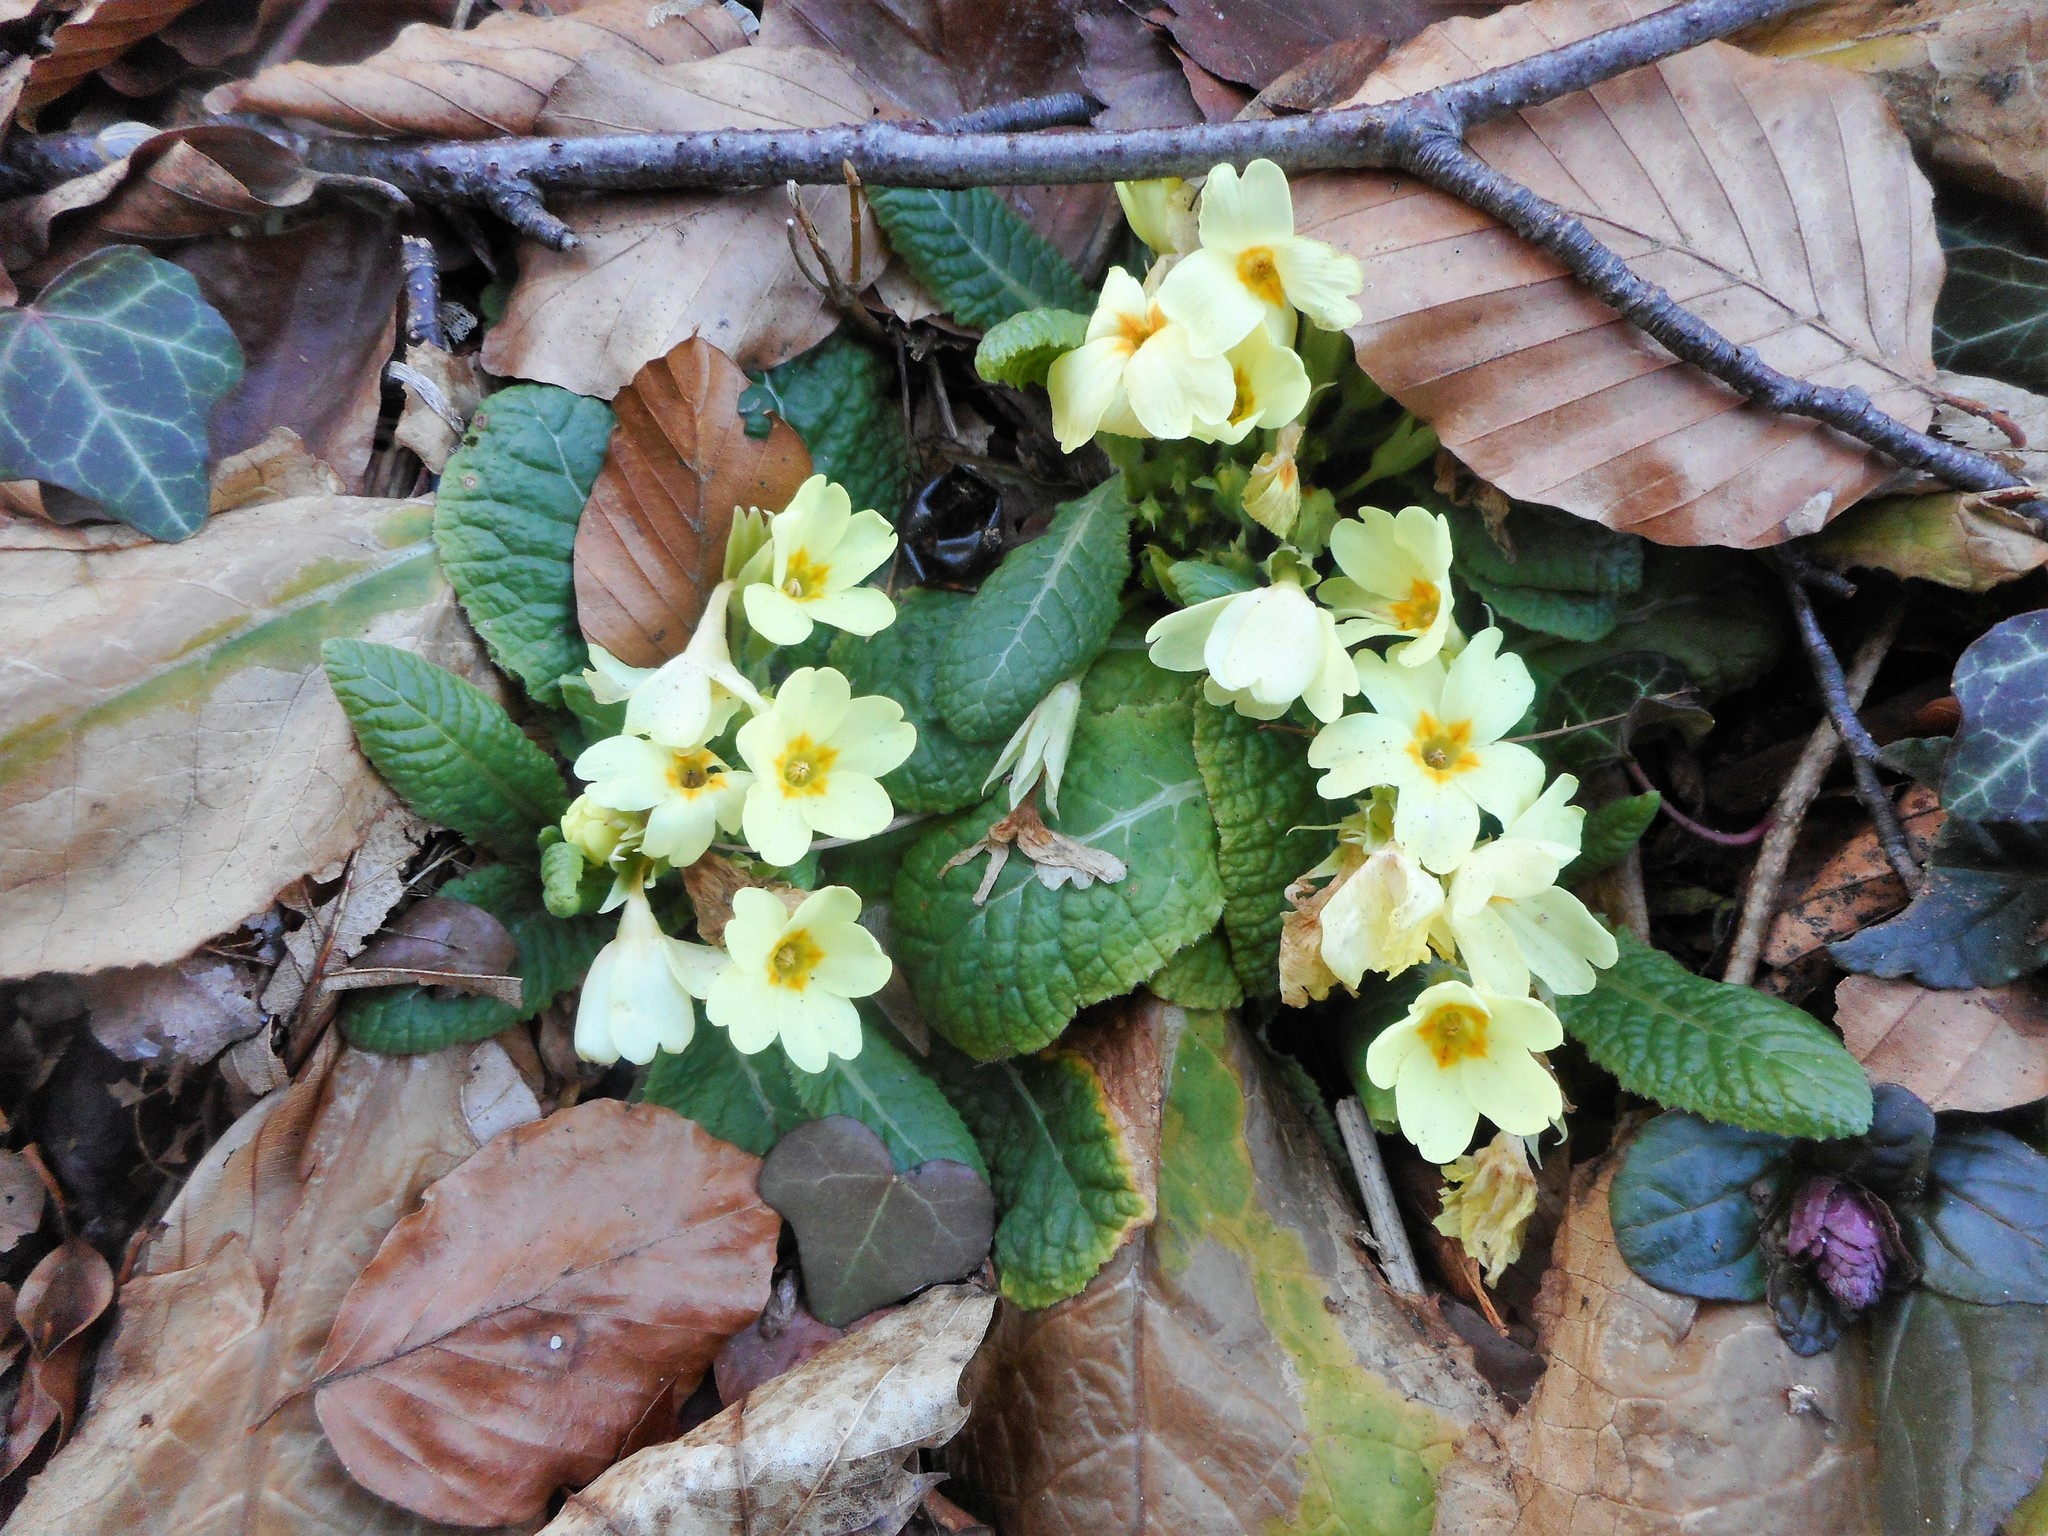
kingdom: Plantae
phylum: Tracheophyta
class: Magnoliopsida
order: Ericales
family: Primulaceae
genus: Primula
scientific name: Primula vulgaris
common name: Primrose
